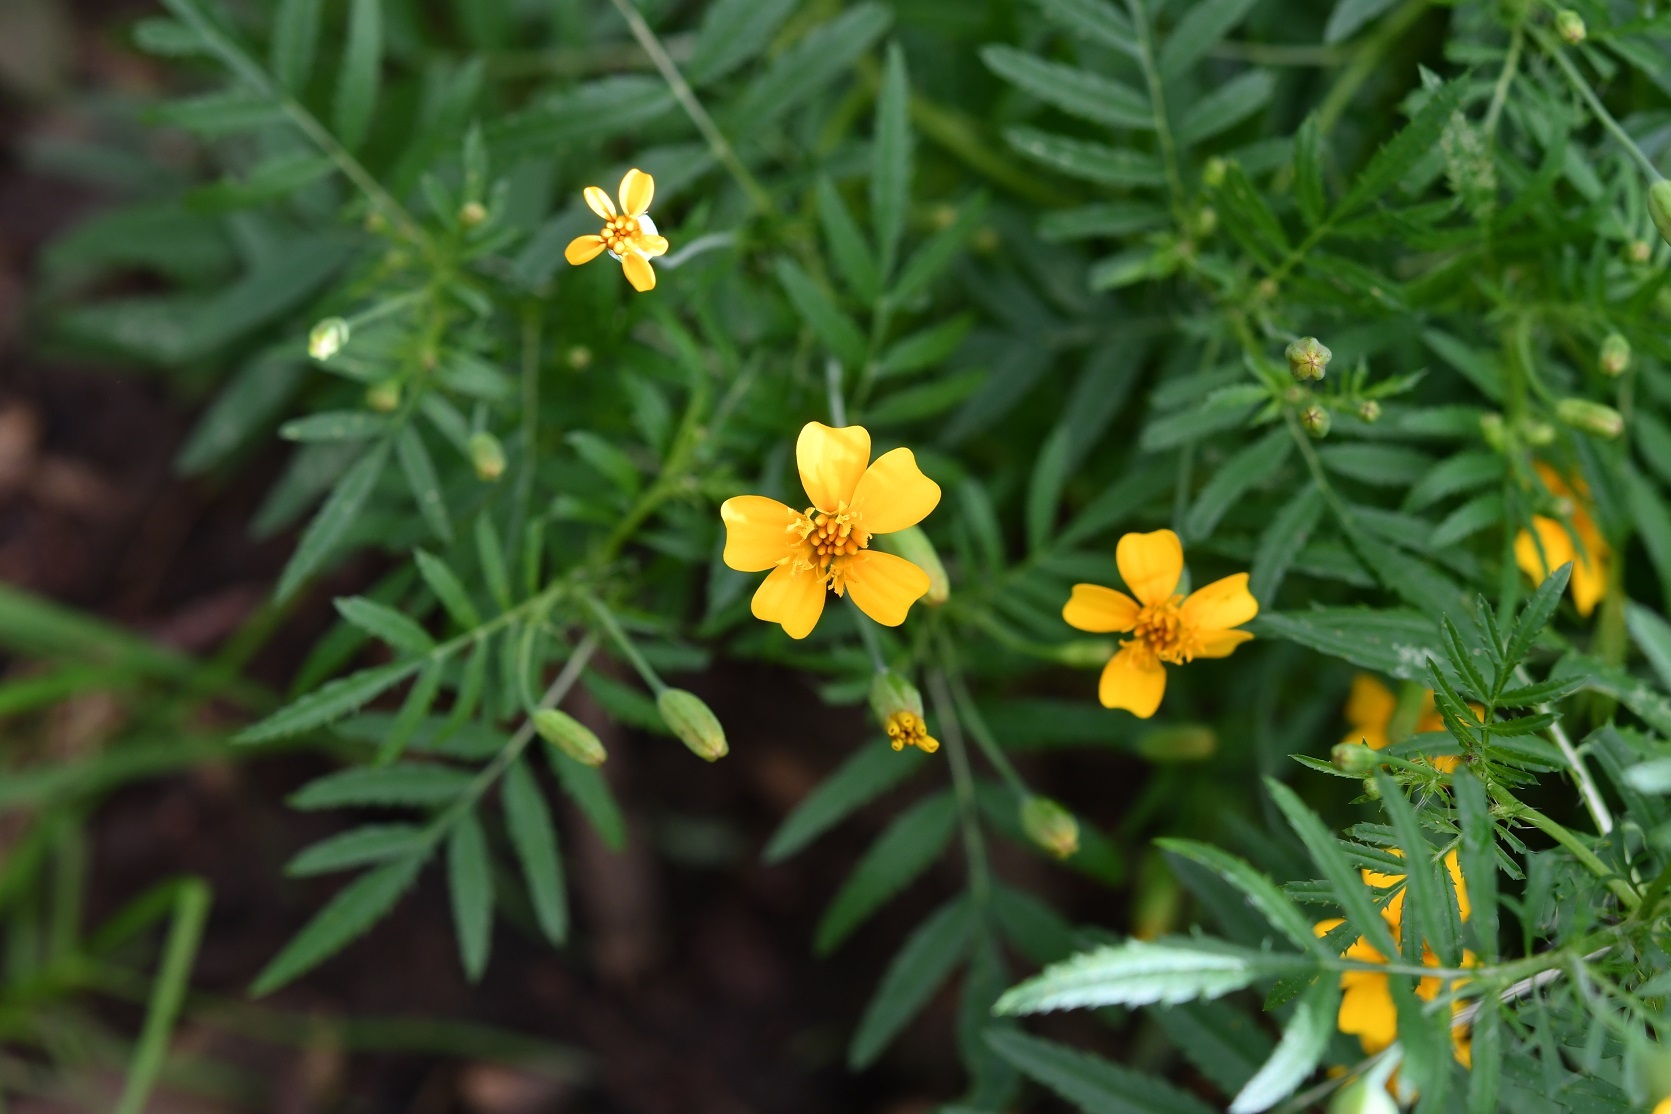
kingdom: Plantae
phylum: Tracheophyta
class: Magnoliopsida
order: Asterales
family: Asteraceae
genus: Tagetes
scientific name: Tagetes tenuifolia
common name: Signet marigold
